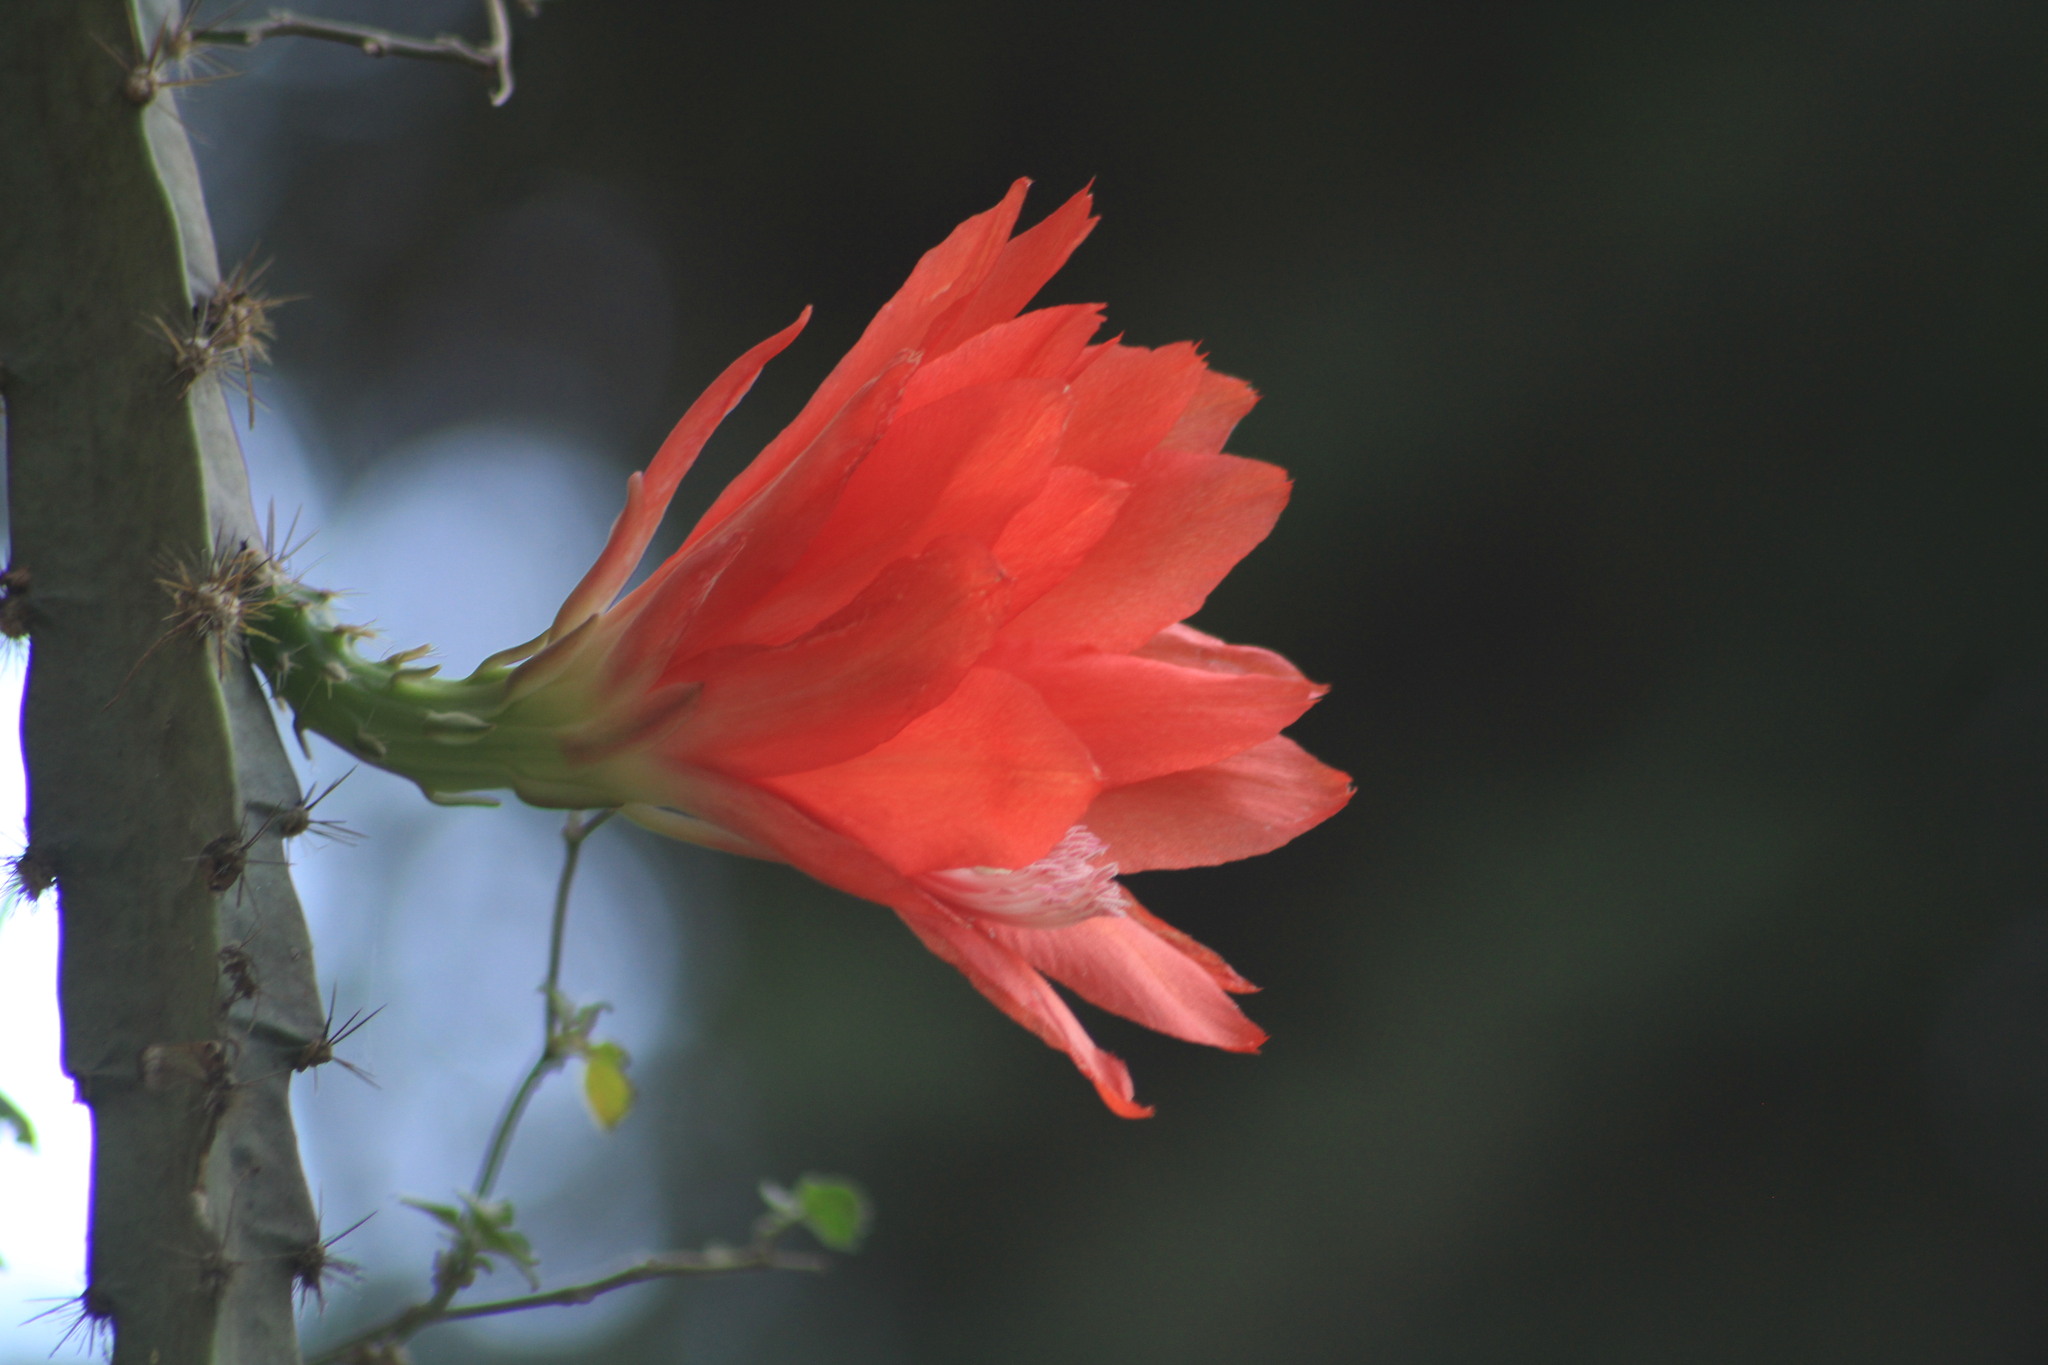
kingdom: Plantae
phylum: Tracheophyta
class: Magnoliopsida
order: Caryophyllales
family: Cactaceae
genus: Disocactus
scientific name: Disocactus speciosus
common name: Sun cereus
